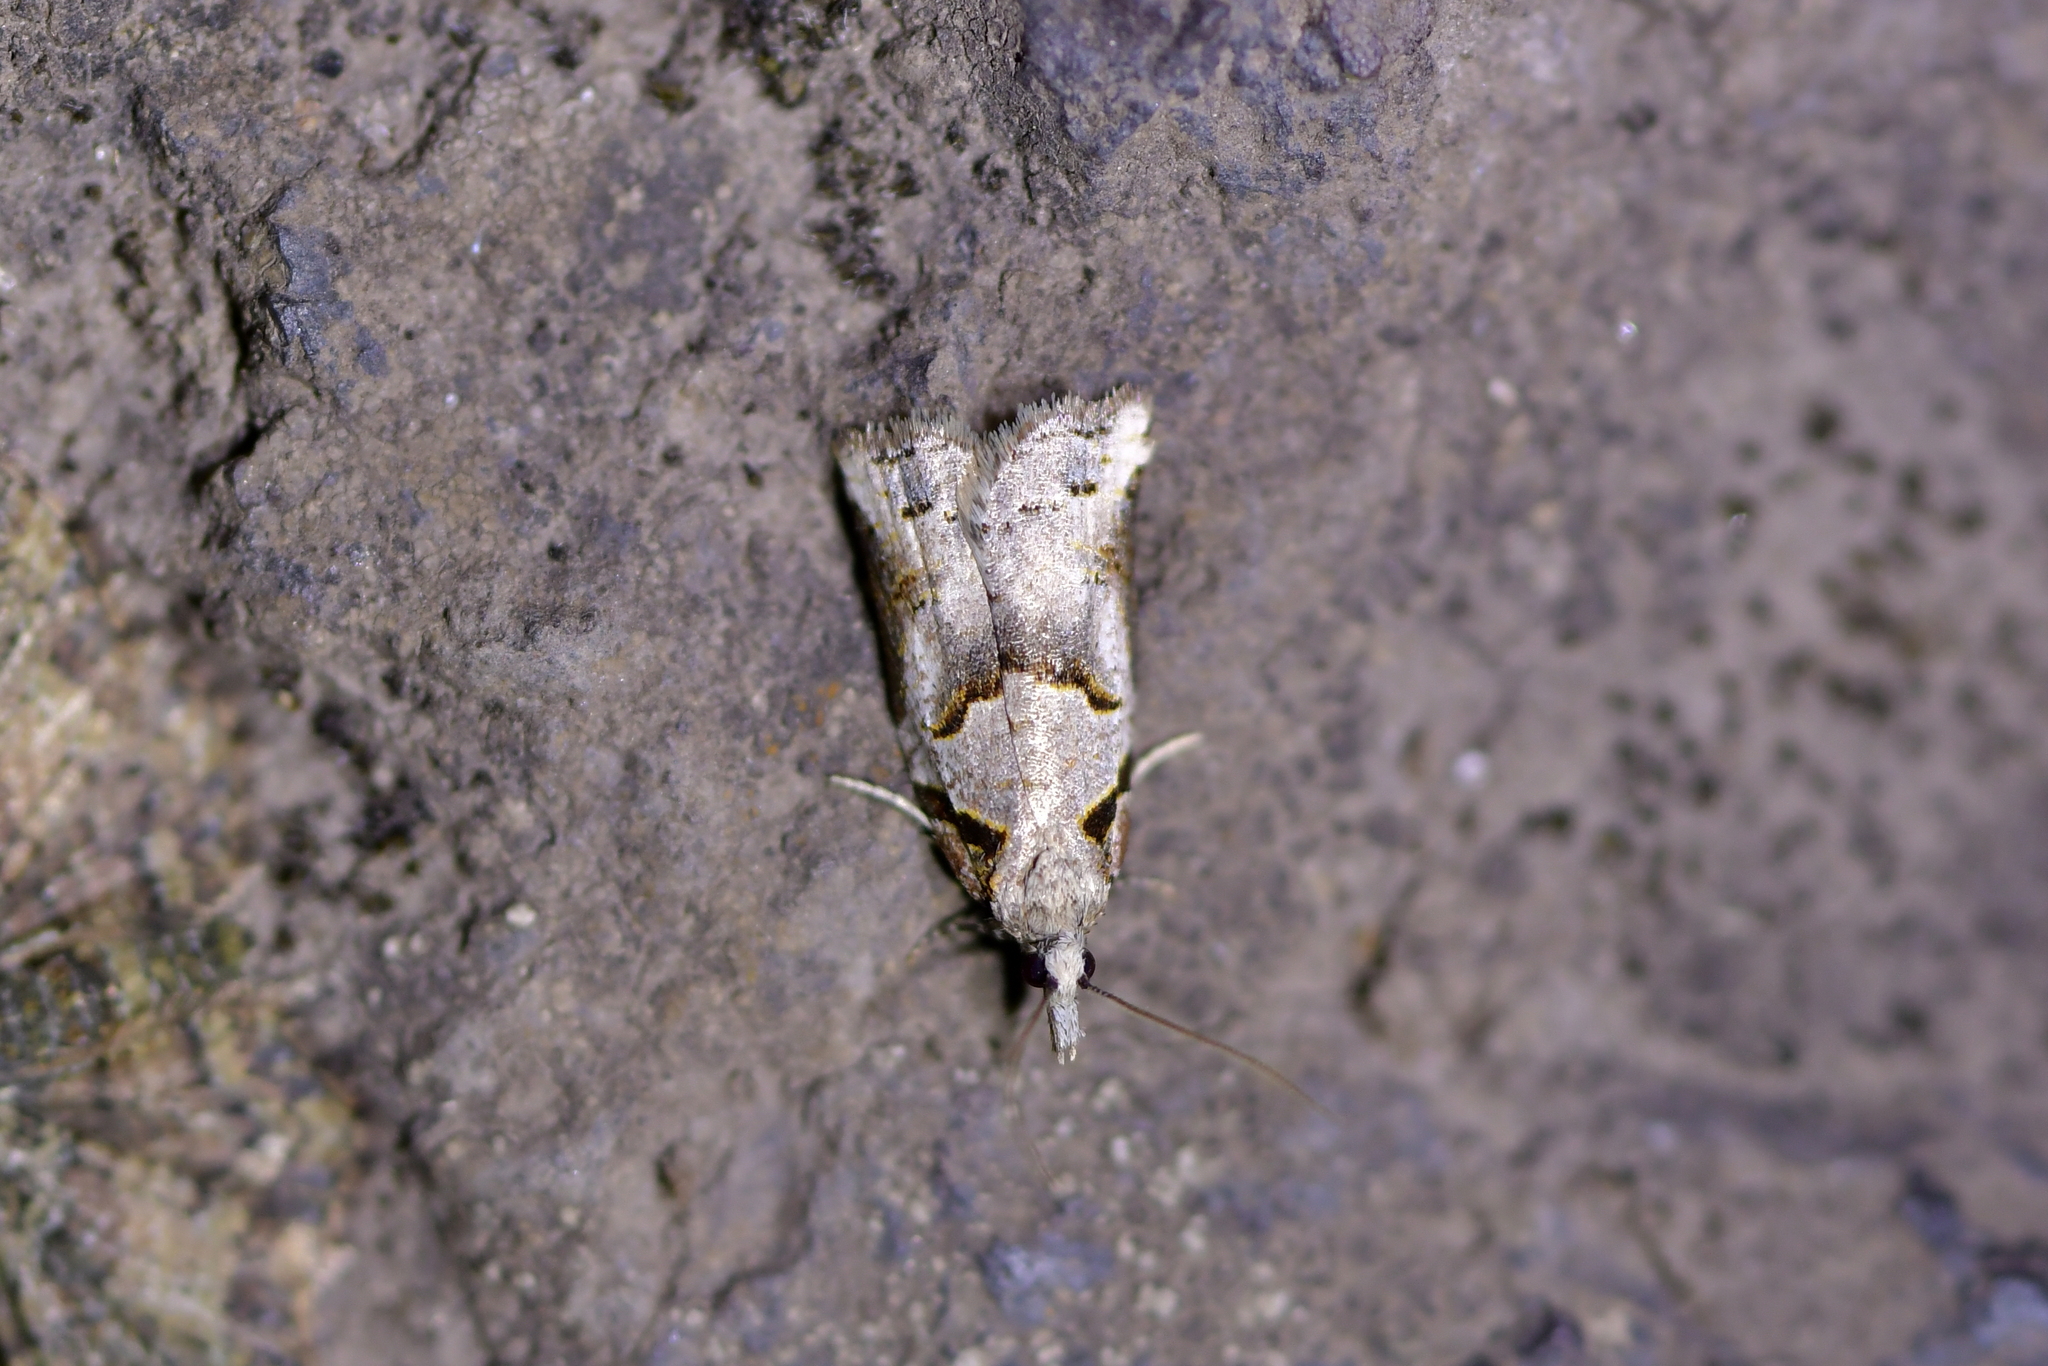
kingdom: Animalia
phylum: Arthropoda
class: Insecta
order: Lepidoptera
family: Tortricidae
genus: Harmologa
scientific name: Harmologa amplexana
